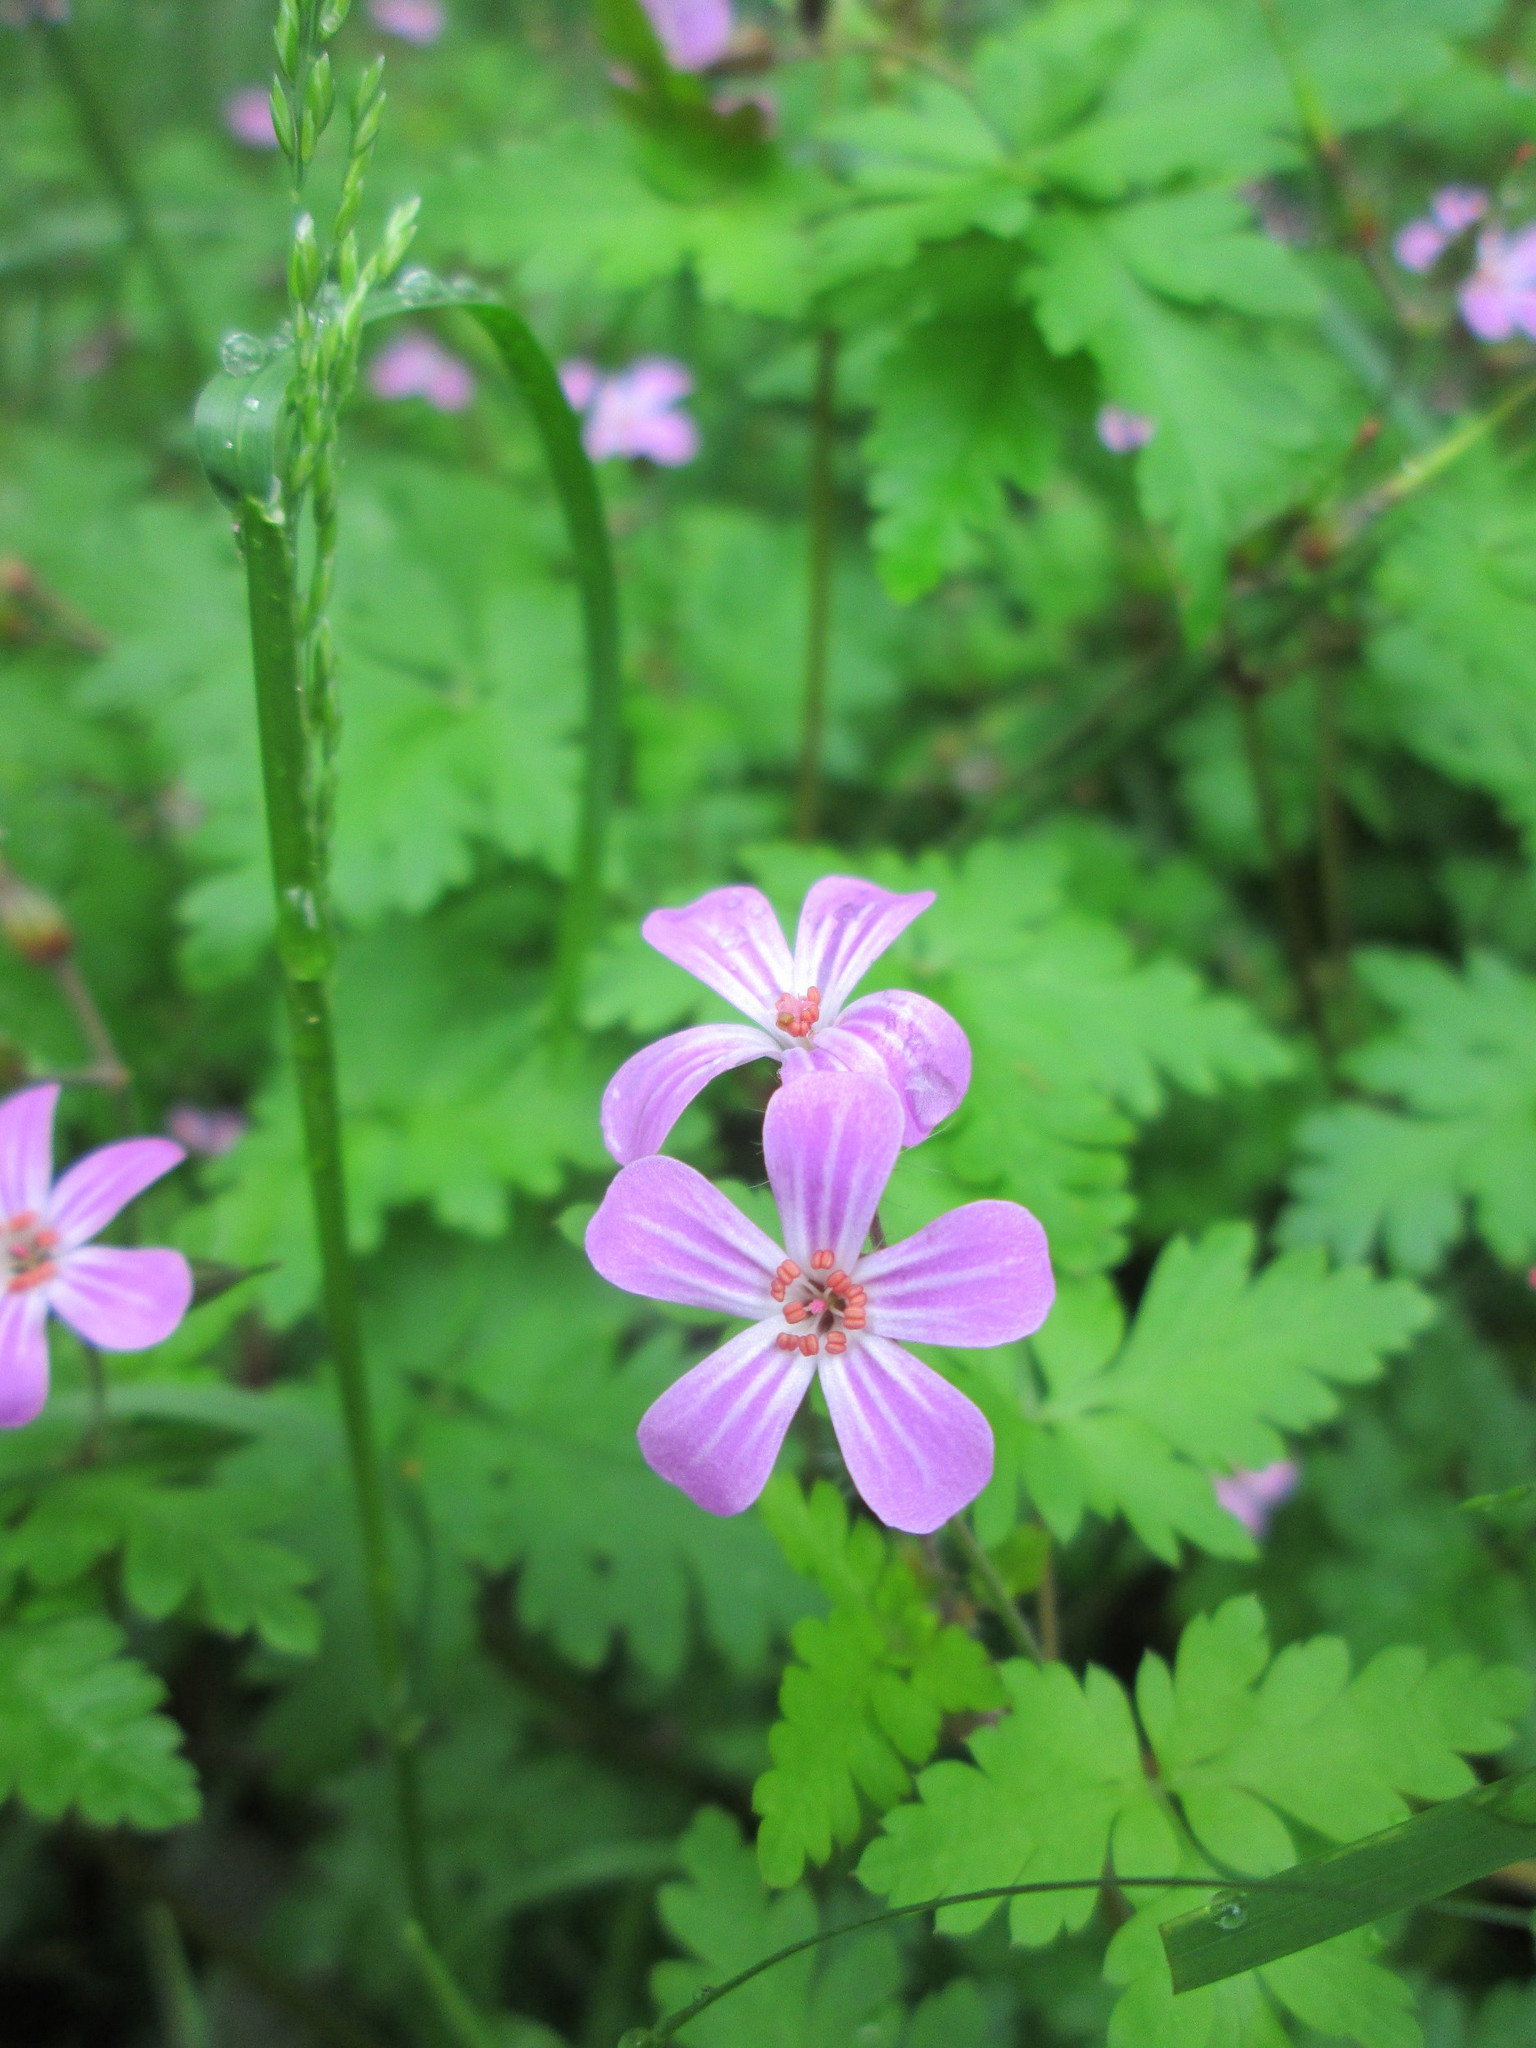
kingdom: Plantae
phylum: Tracheophyta
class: Magnoliopsida
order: Geraniales
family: Geraniaceae
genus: Geranium
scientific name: Geranium robertianum
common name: Herb-robert
